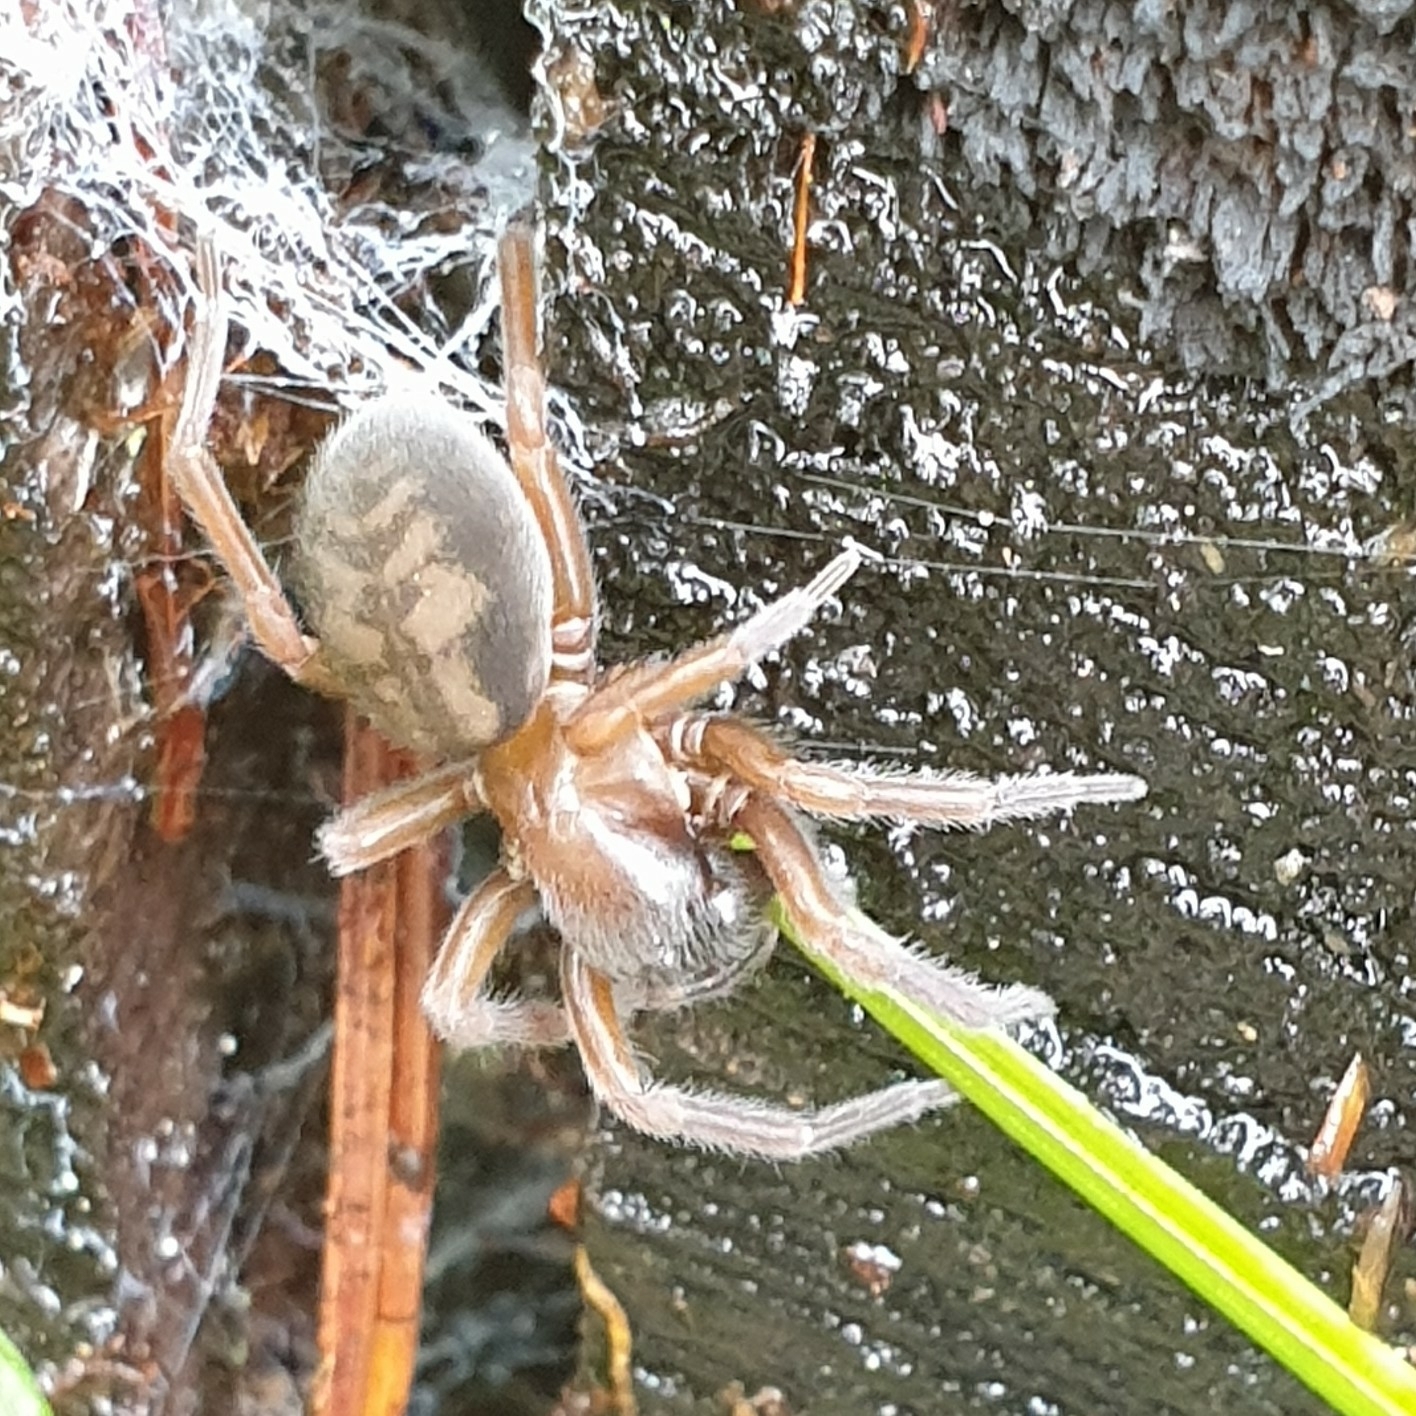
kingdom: Animalia
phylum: Arthropoda
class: Arachnida
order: Araneae
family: Amaurobiidae
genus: Callobius
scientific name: Callobius claustrarius
